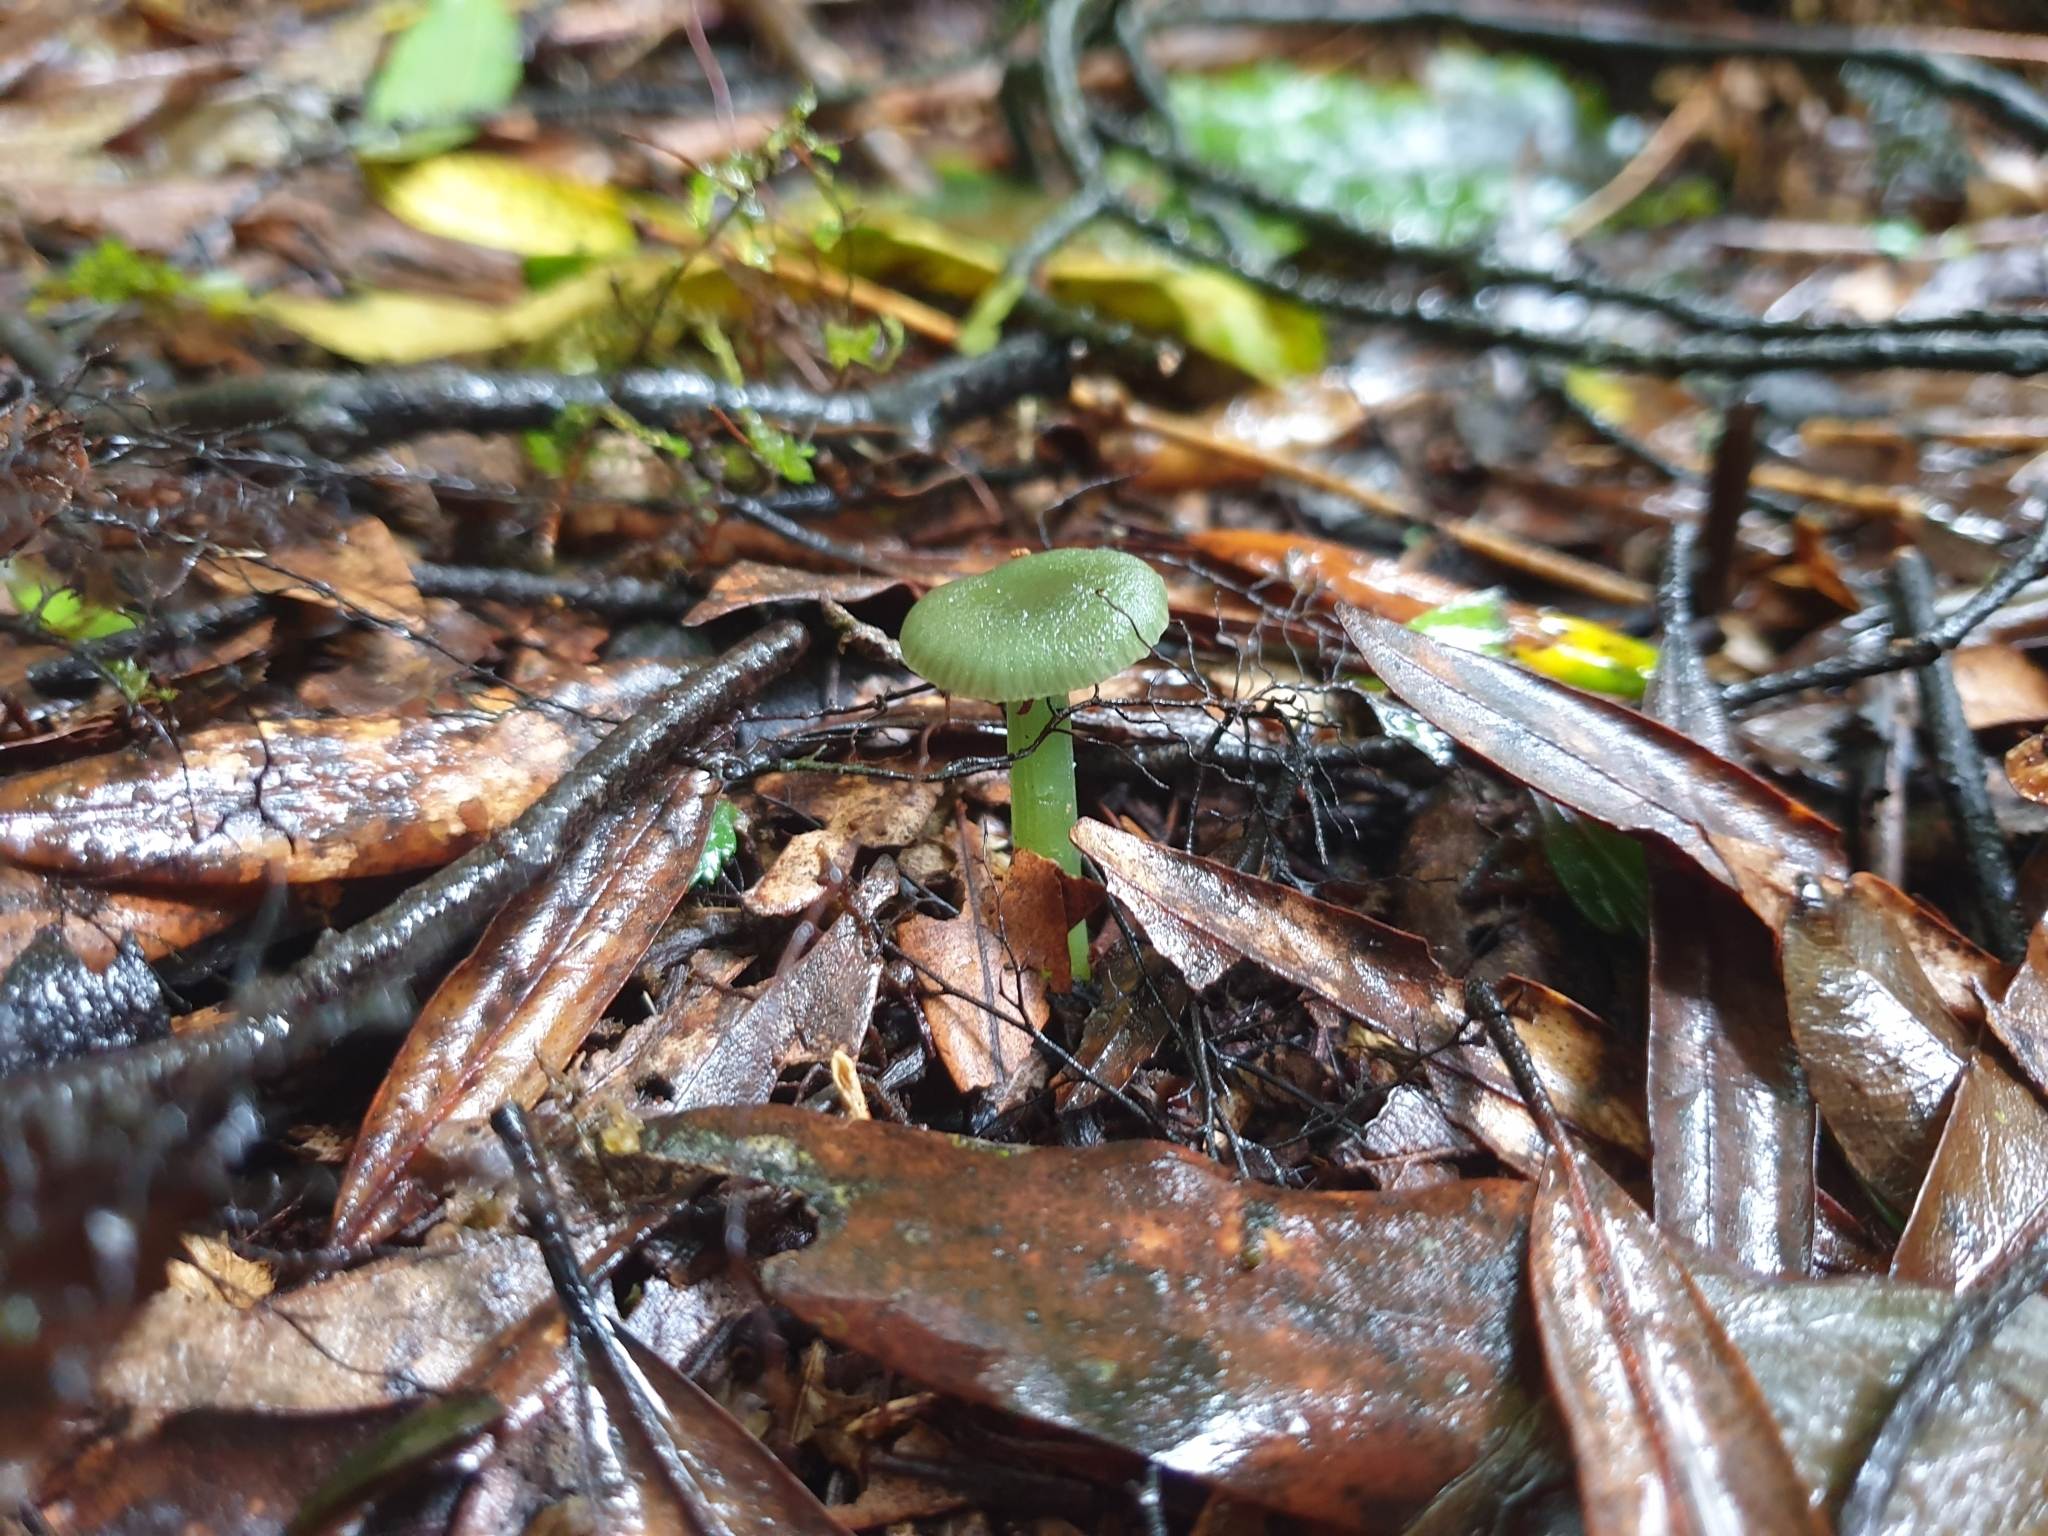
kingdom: Fungi
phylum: Basidiomycota
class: Agaricomycetes
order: Agaricales
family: Hygrophoraceae
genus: Gliophorus
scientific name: Gliophorus viridis
